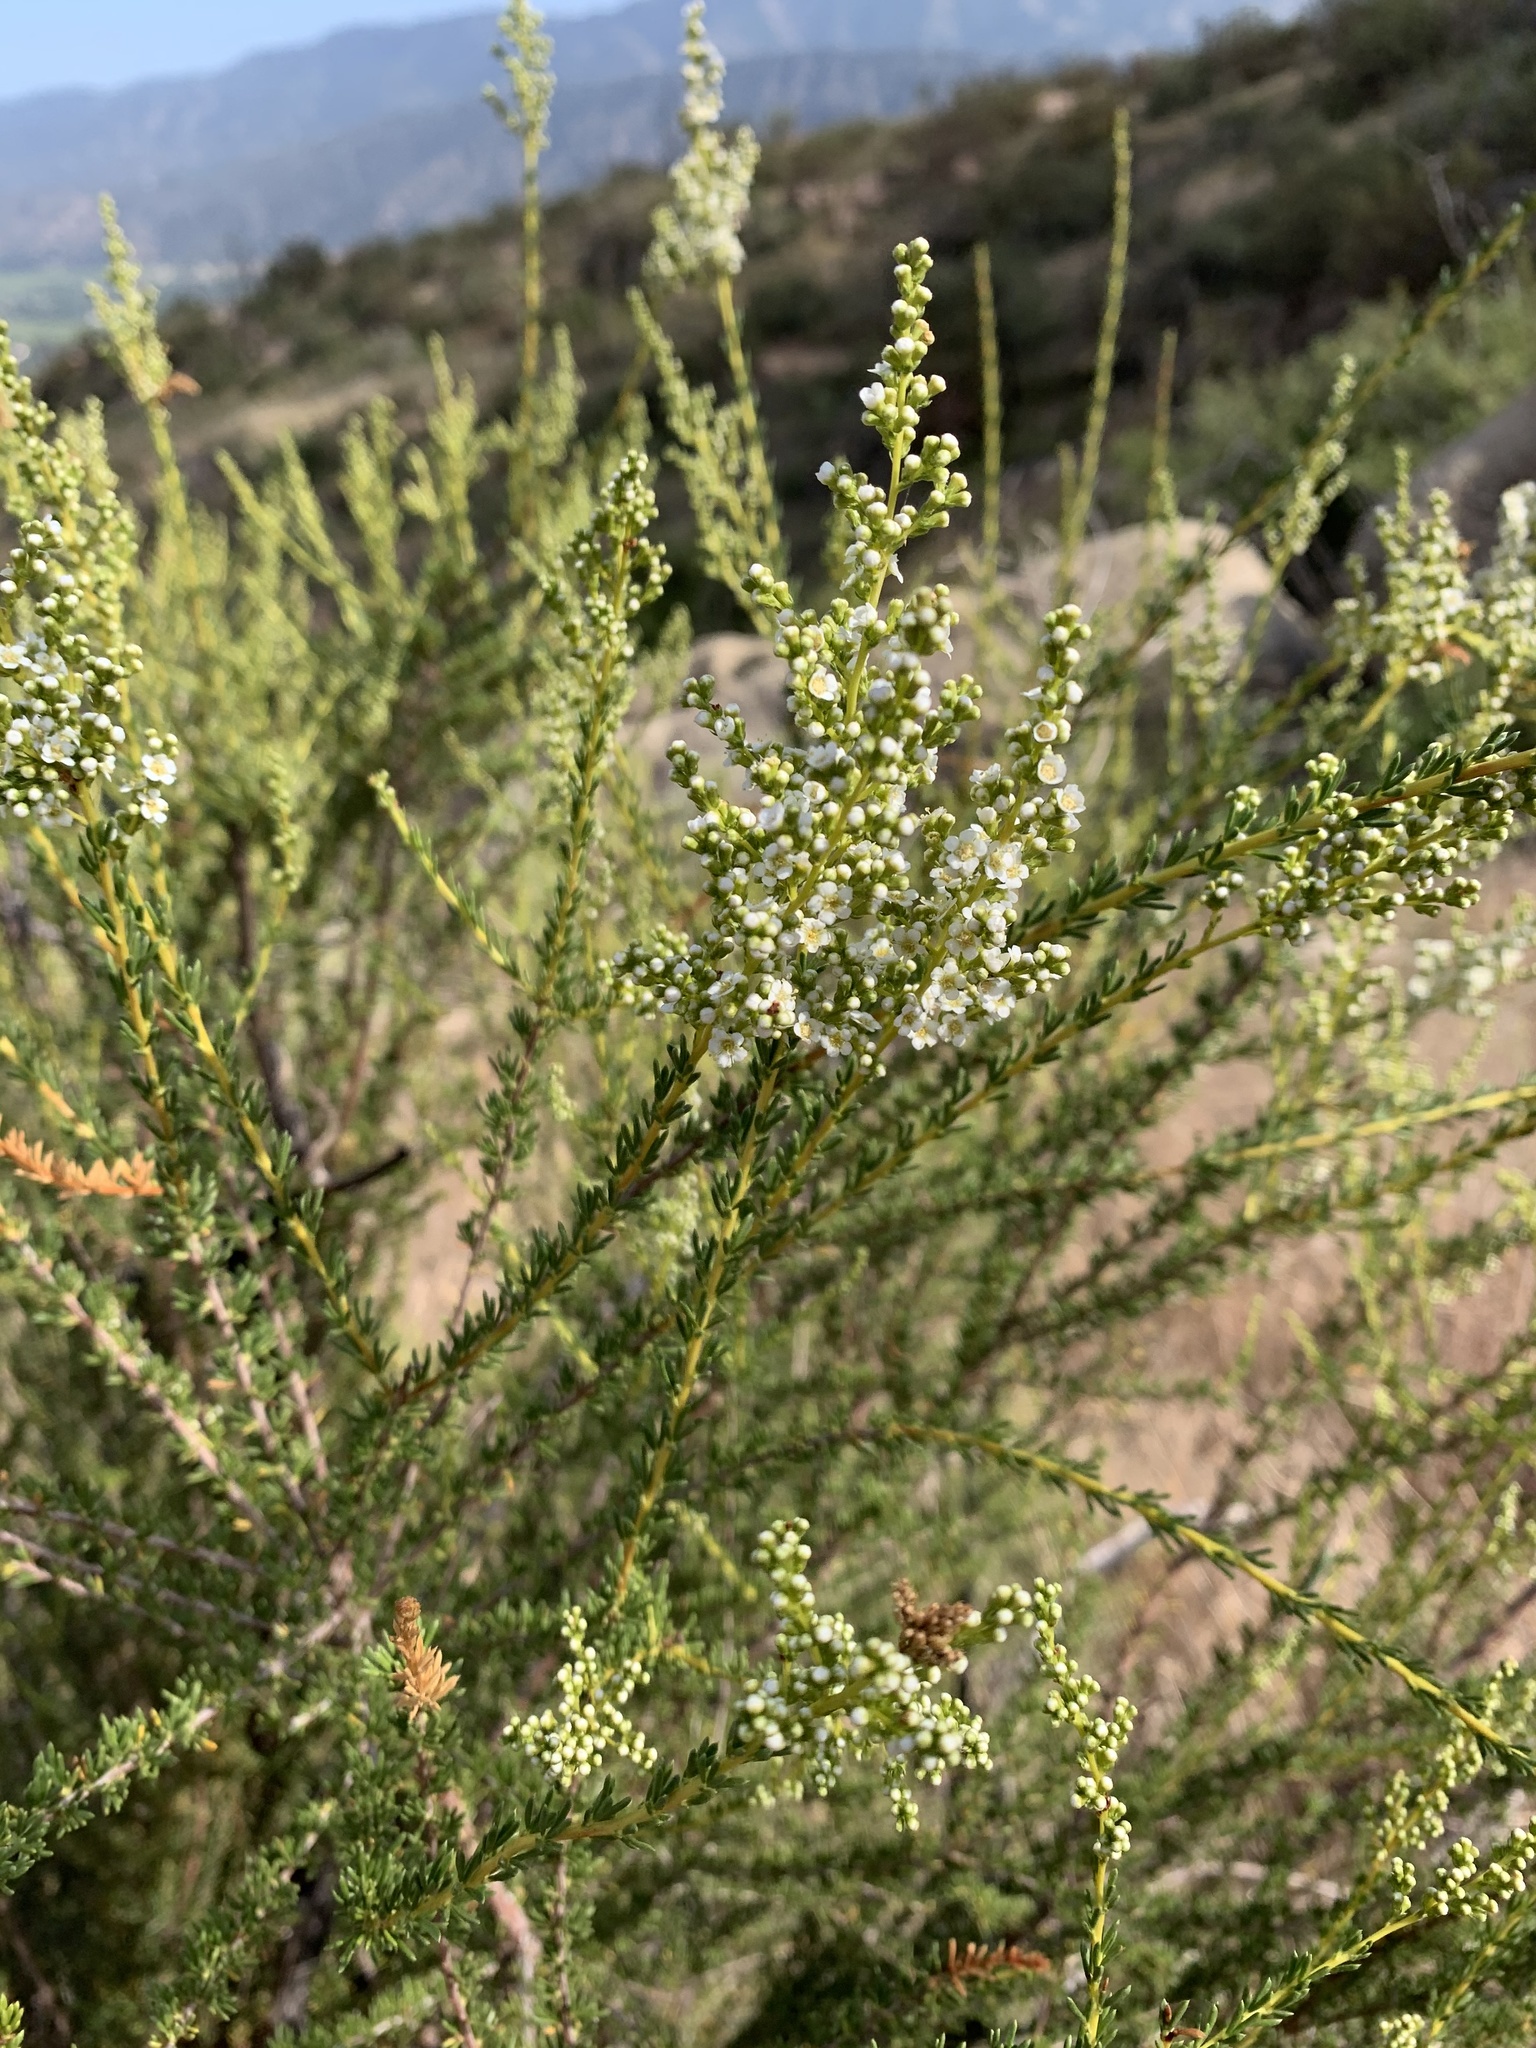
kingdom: Plantae
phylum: Tracheophyta
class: Magnoliopsida
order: Rosales
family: Rosaceae
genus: Adenostoma
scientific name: Adenostoma fasciculatum
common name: Chamise
